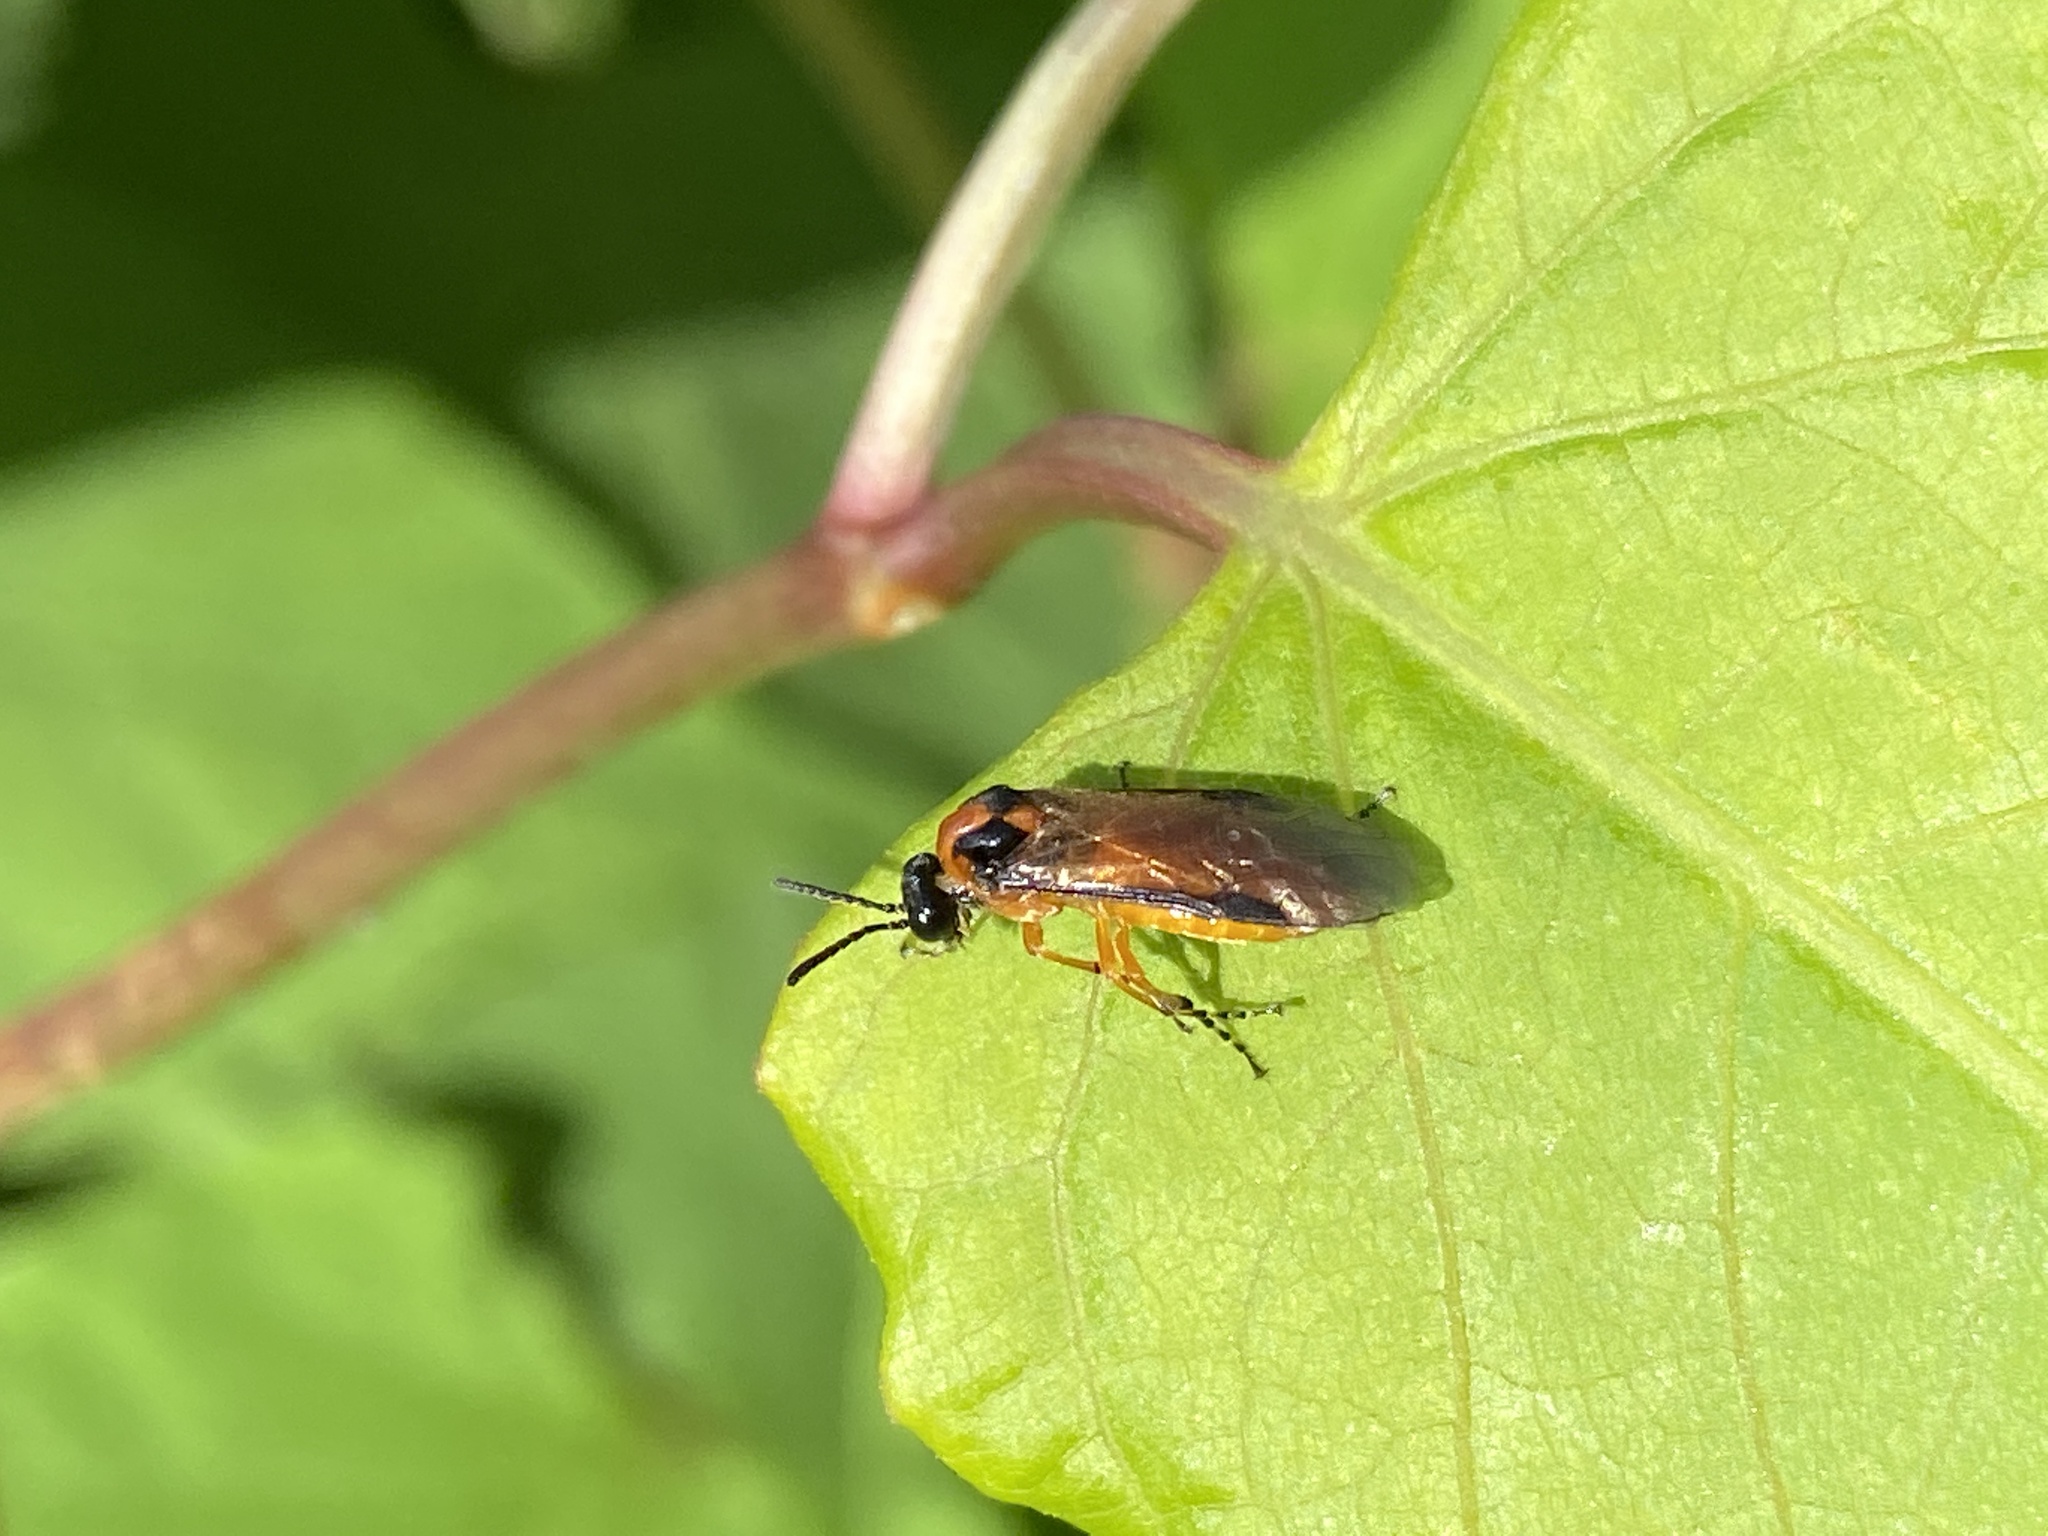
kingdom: Animalia
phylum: Arthropoda
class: Insecta
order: Hymenoptera
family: Tenthredinidae
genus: Athalia
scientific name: Athalia rosae
